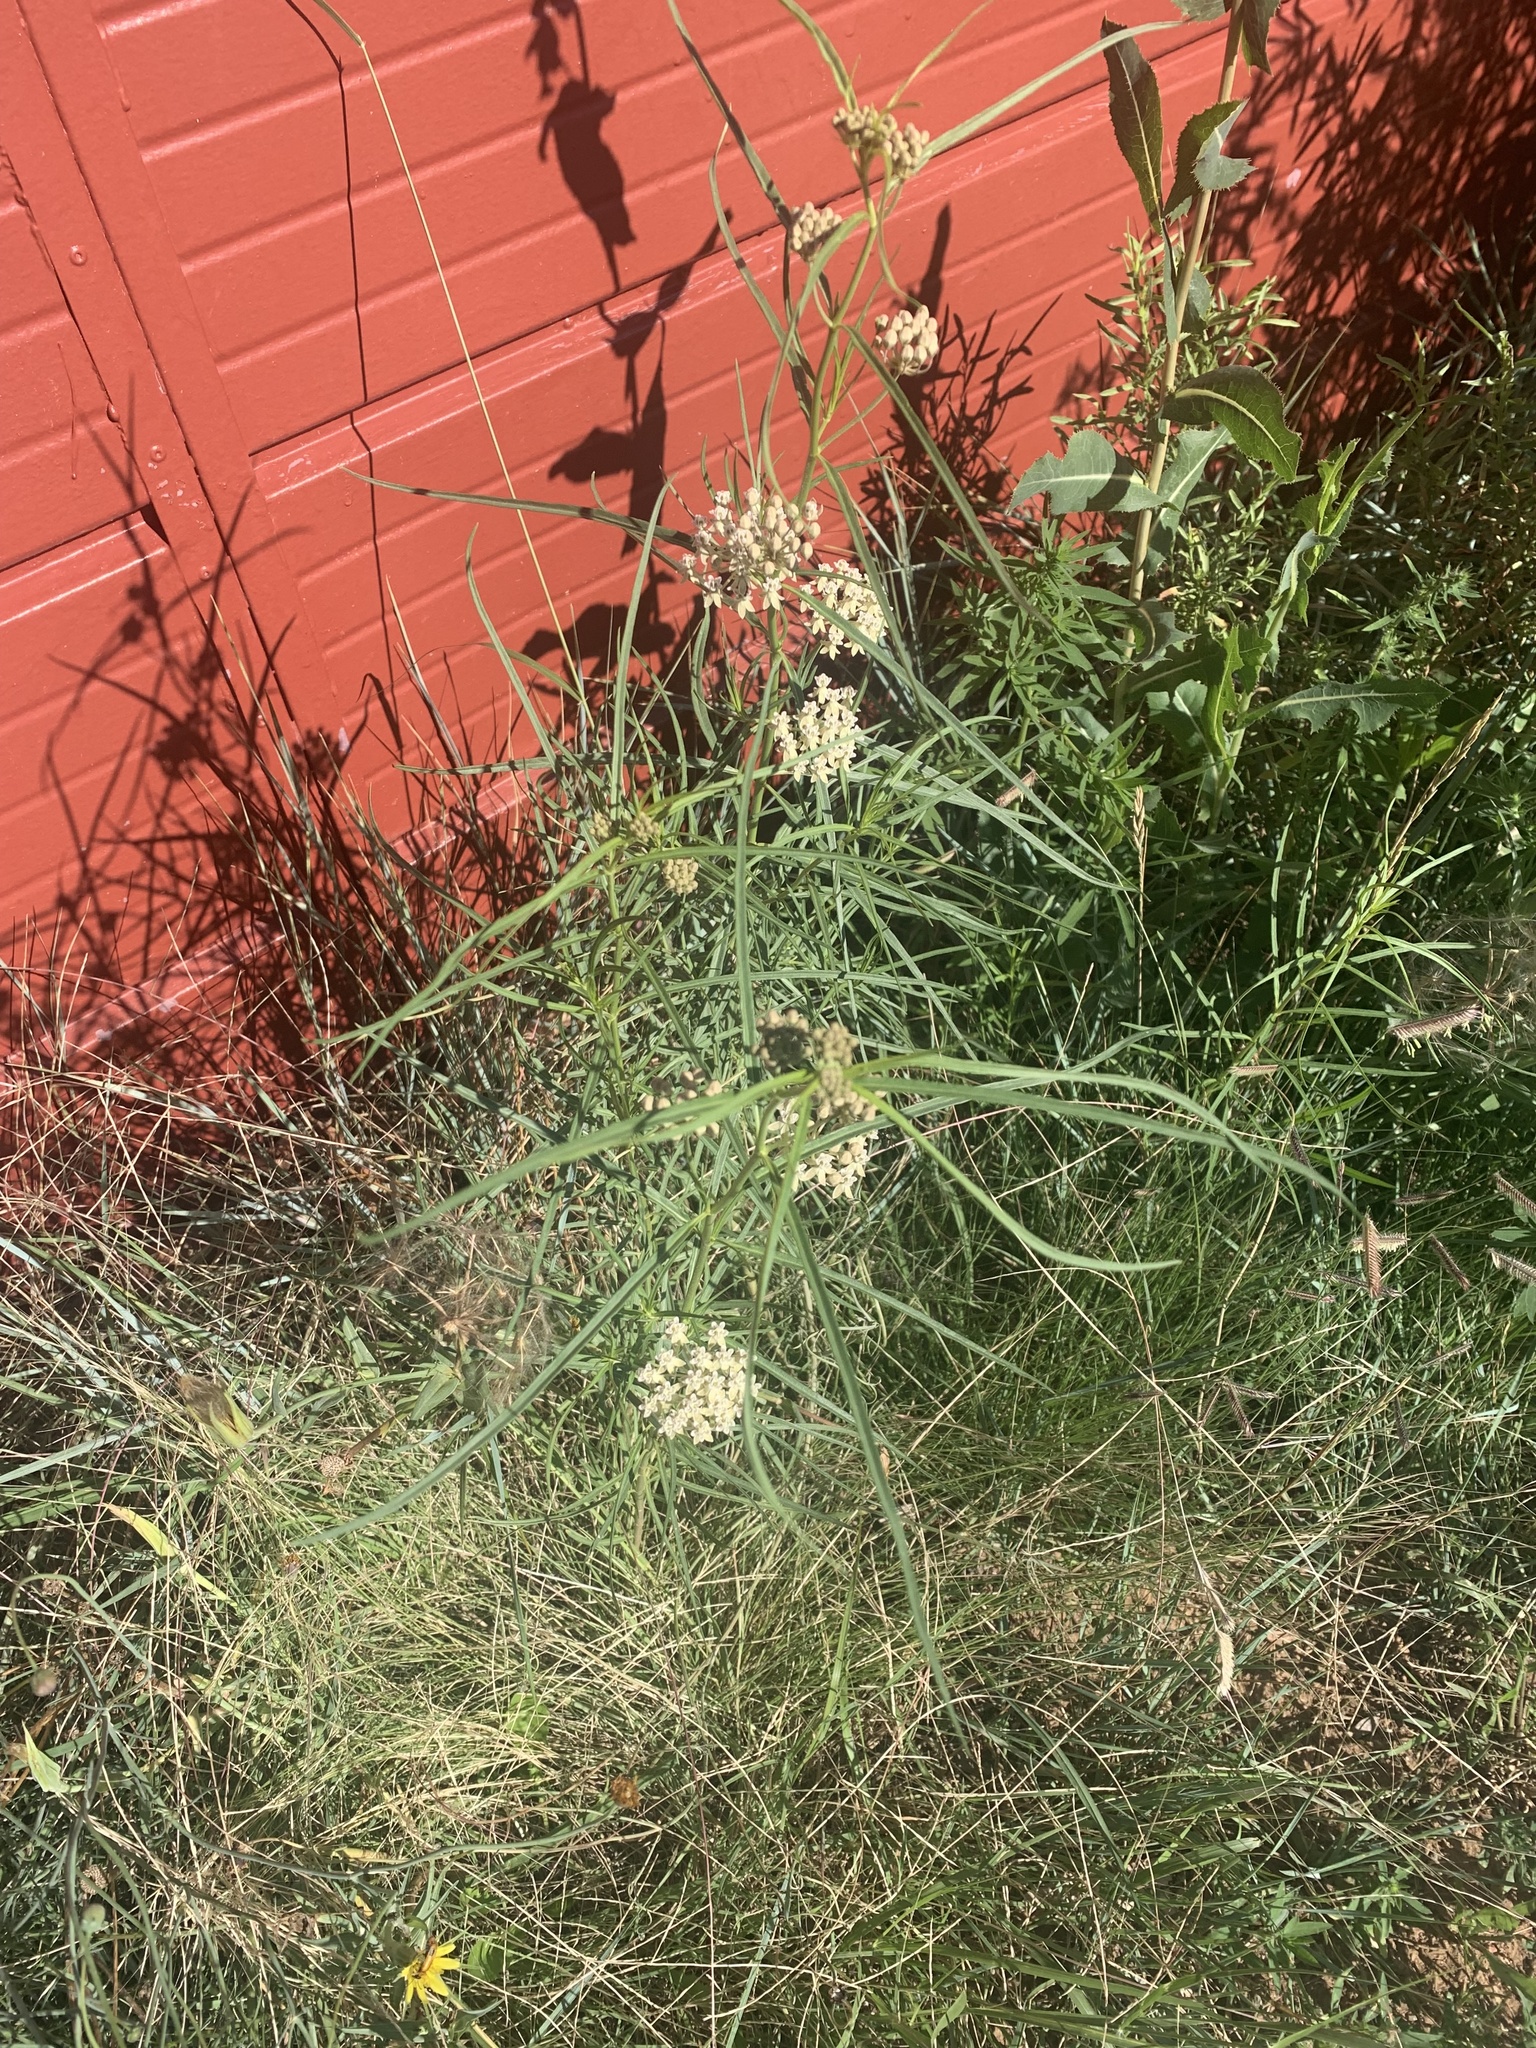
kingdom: Plantae
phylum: Tracheophyta
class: Magnoliopsida
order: Gentianales
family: Apocynaceae
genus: Asclepias
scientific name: Asclepias subverticillata
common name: Horsetail milkweed
